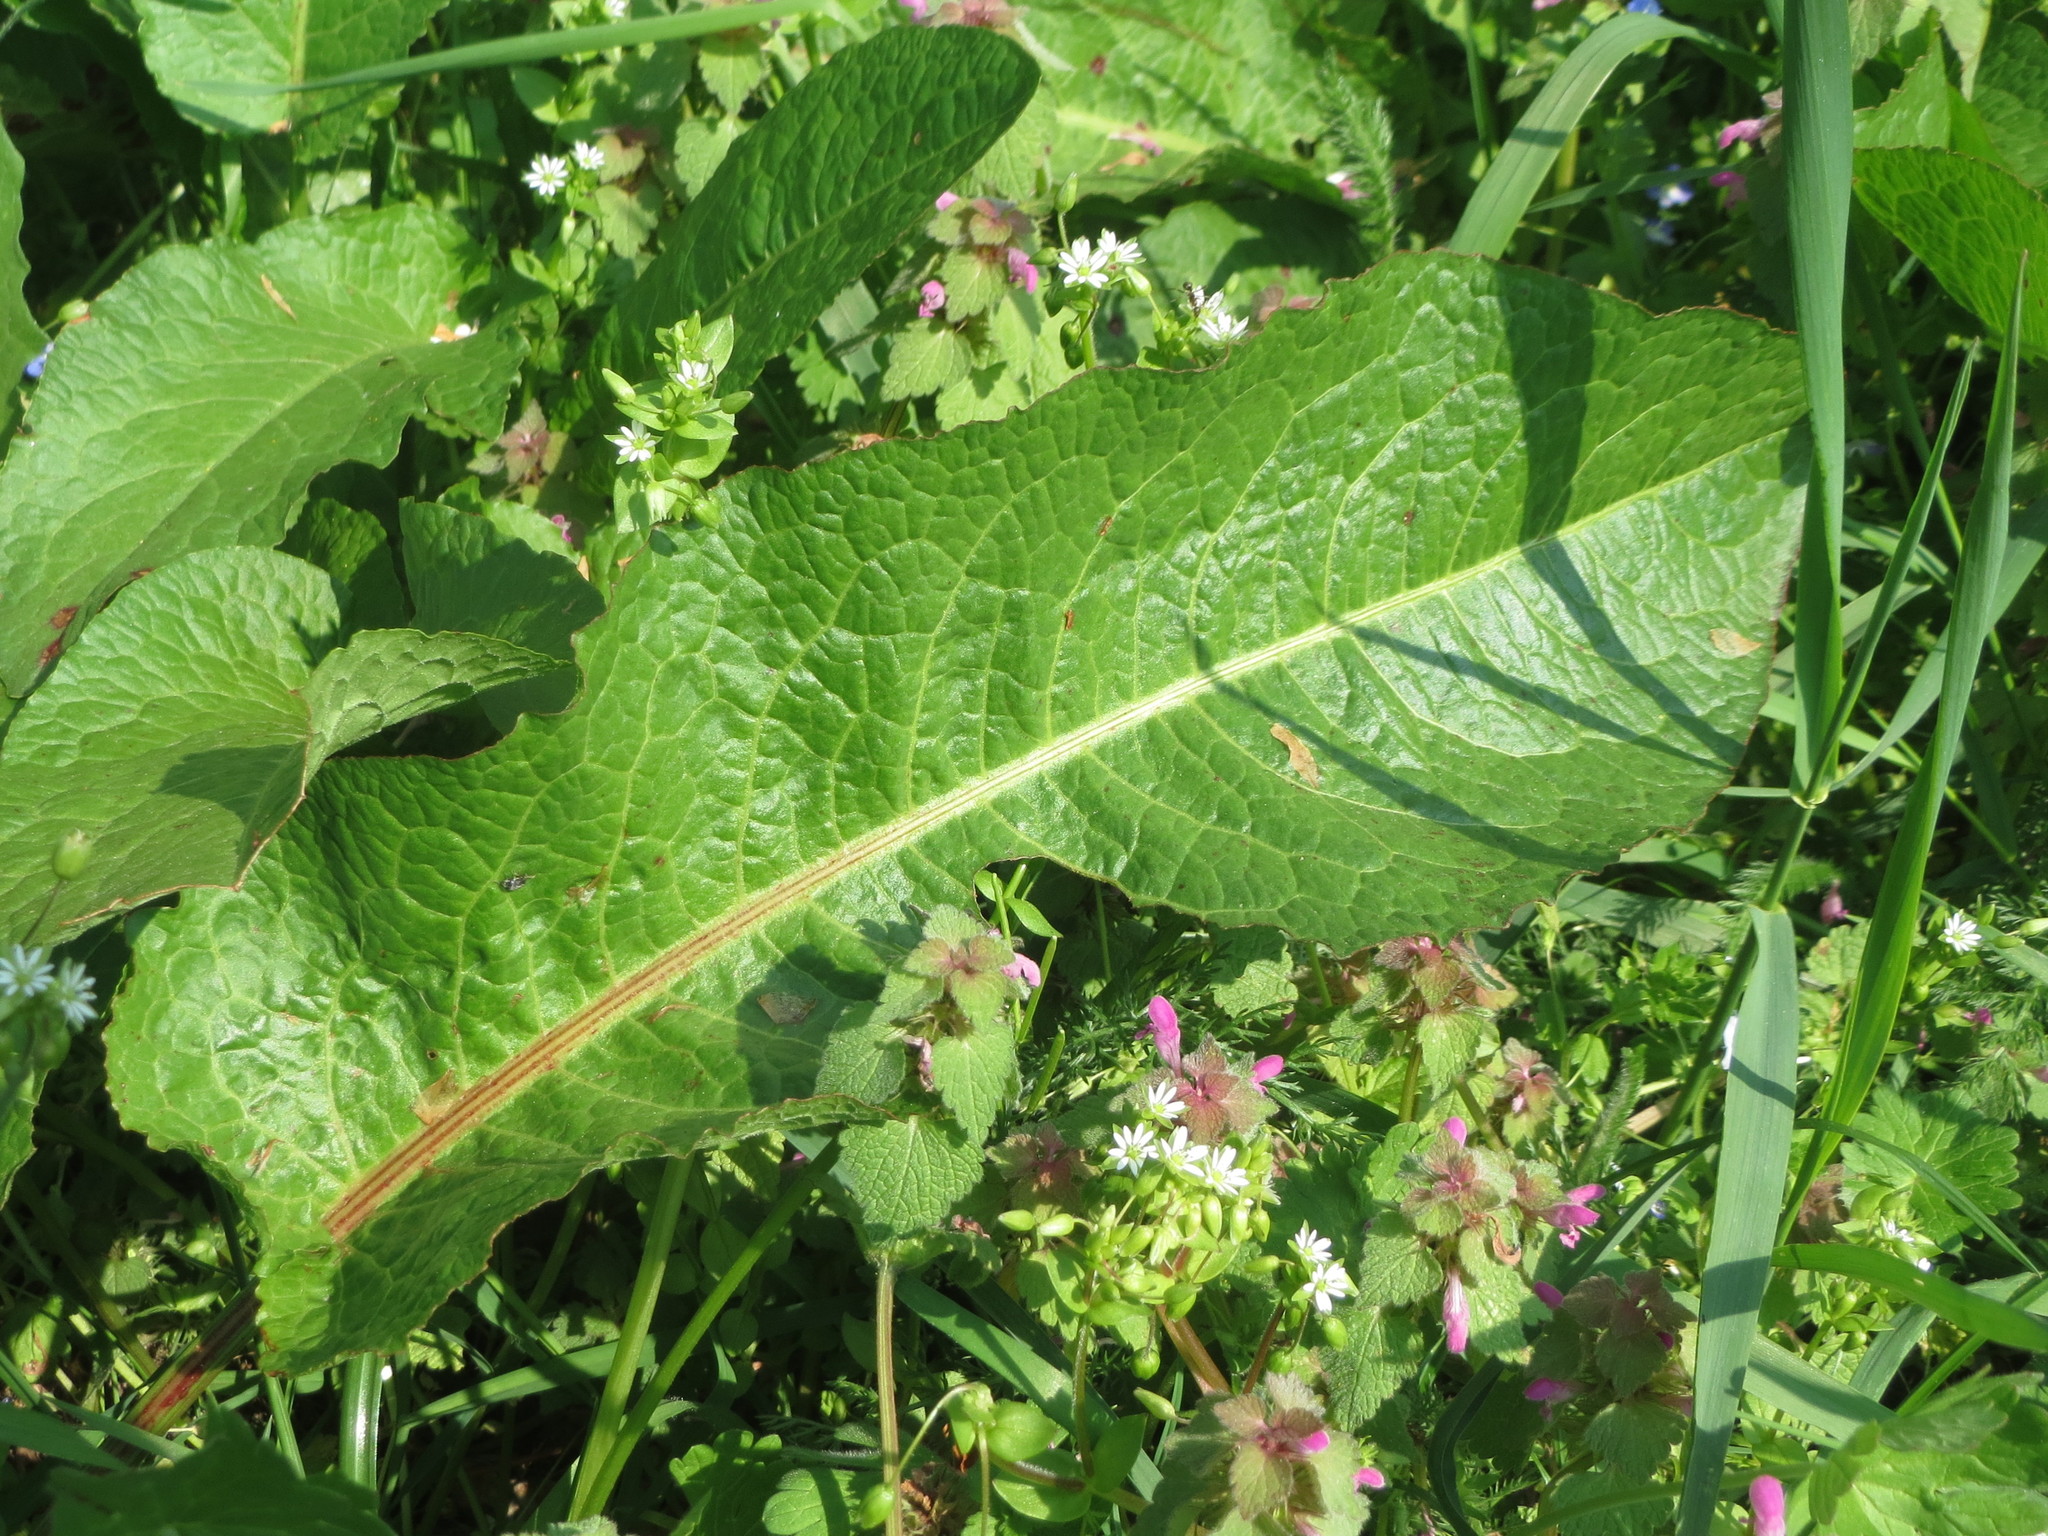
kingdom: Plantae
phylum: Tracheophyta
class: Magnoliopsida
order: Caryophyllales
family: Polygonaceae
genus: Rumex
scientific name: Rumex obtusifolius
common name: Bitter dock
